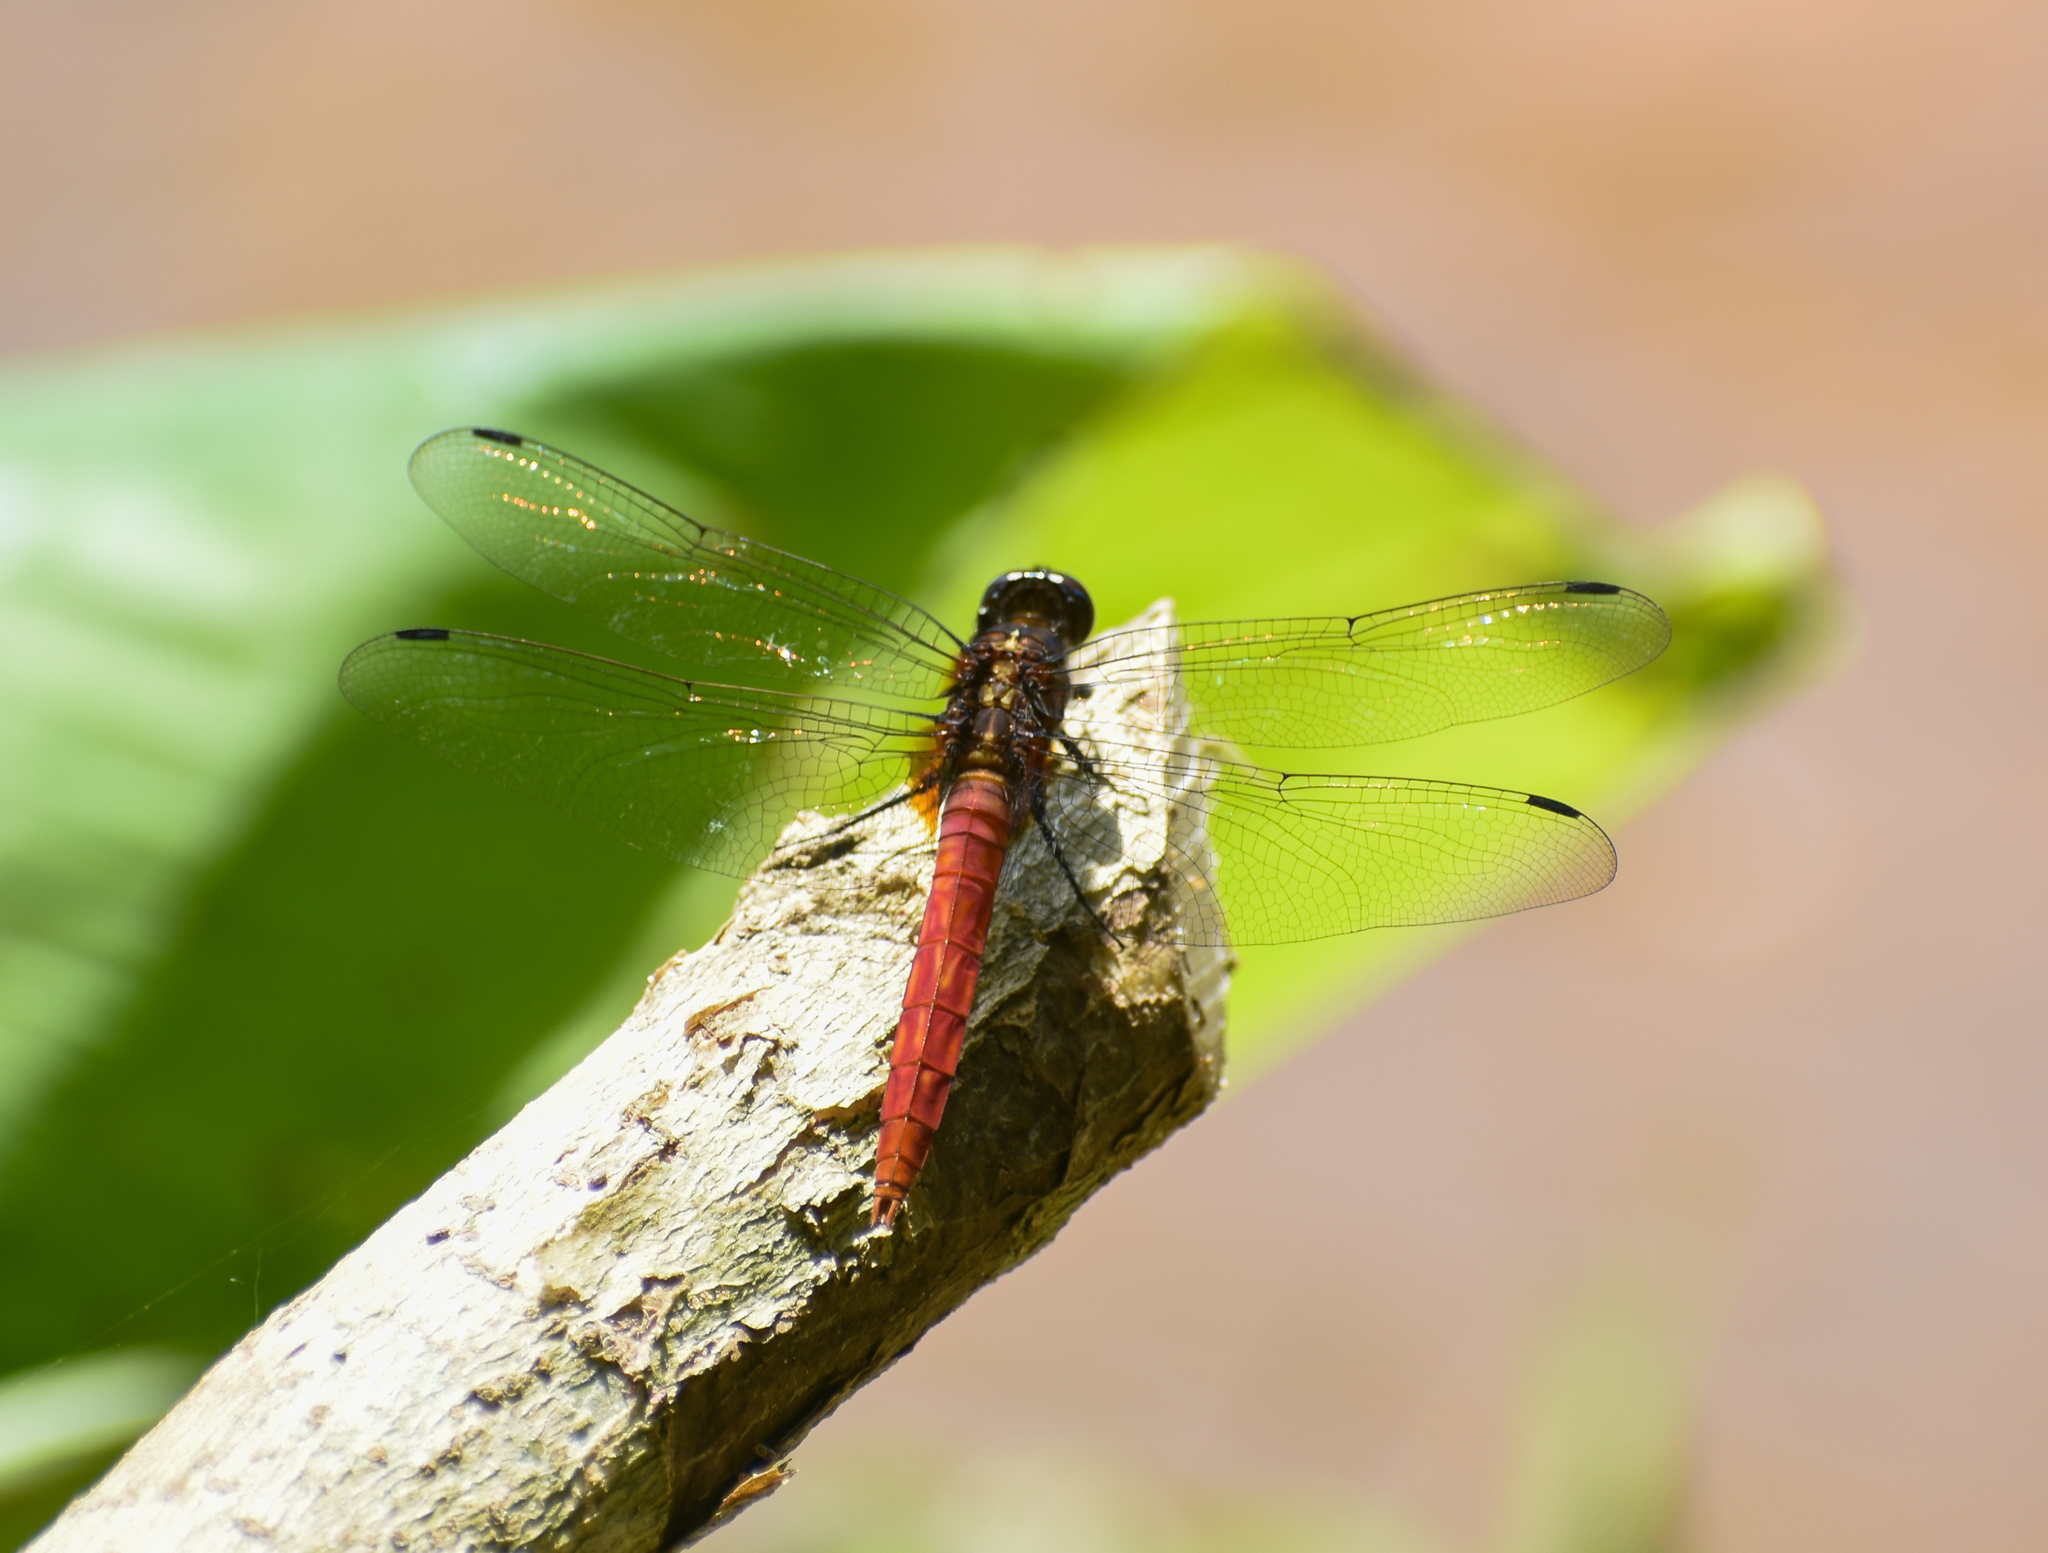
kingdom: Animalia
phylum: Arthropoda
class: Insecta
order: Odonata
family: Libellulidae
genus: Orthetrum
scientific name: Orthetrum chrysis
